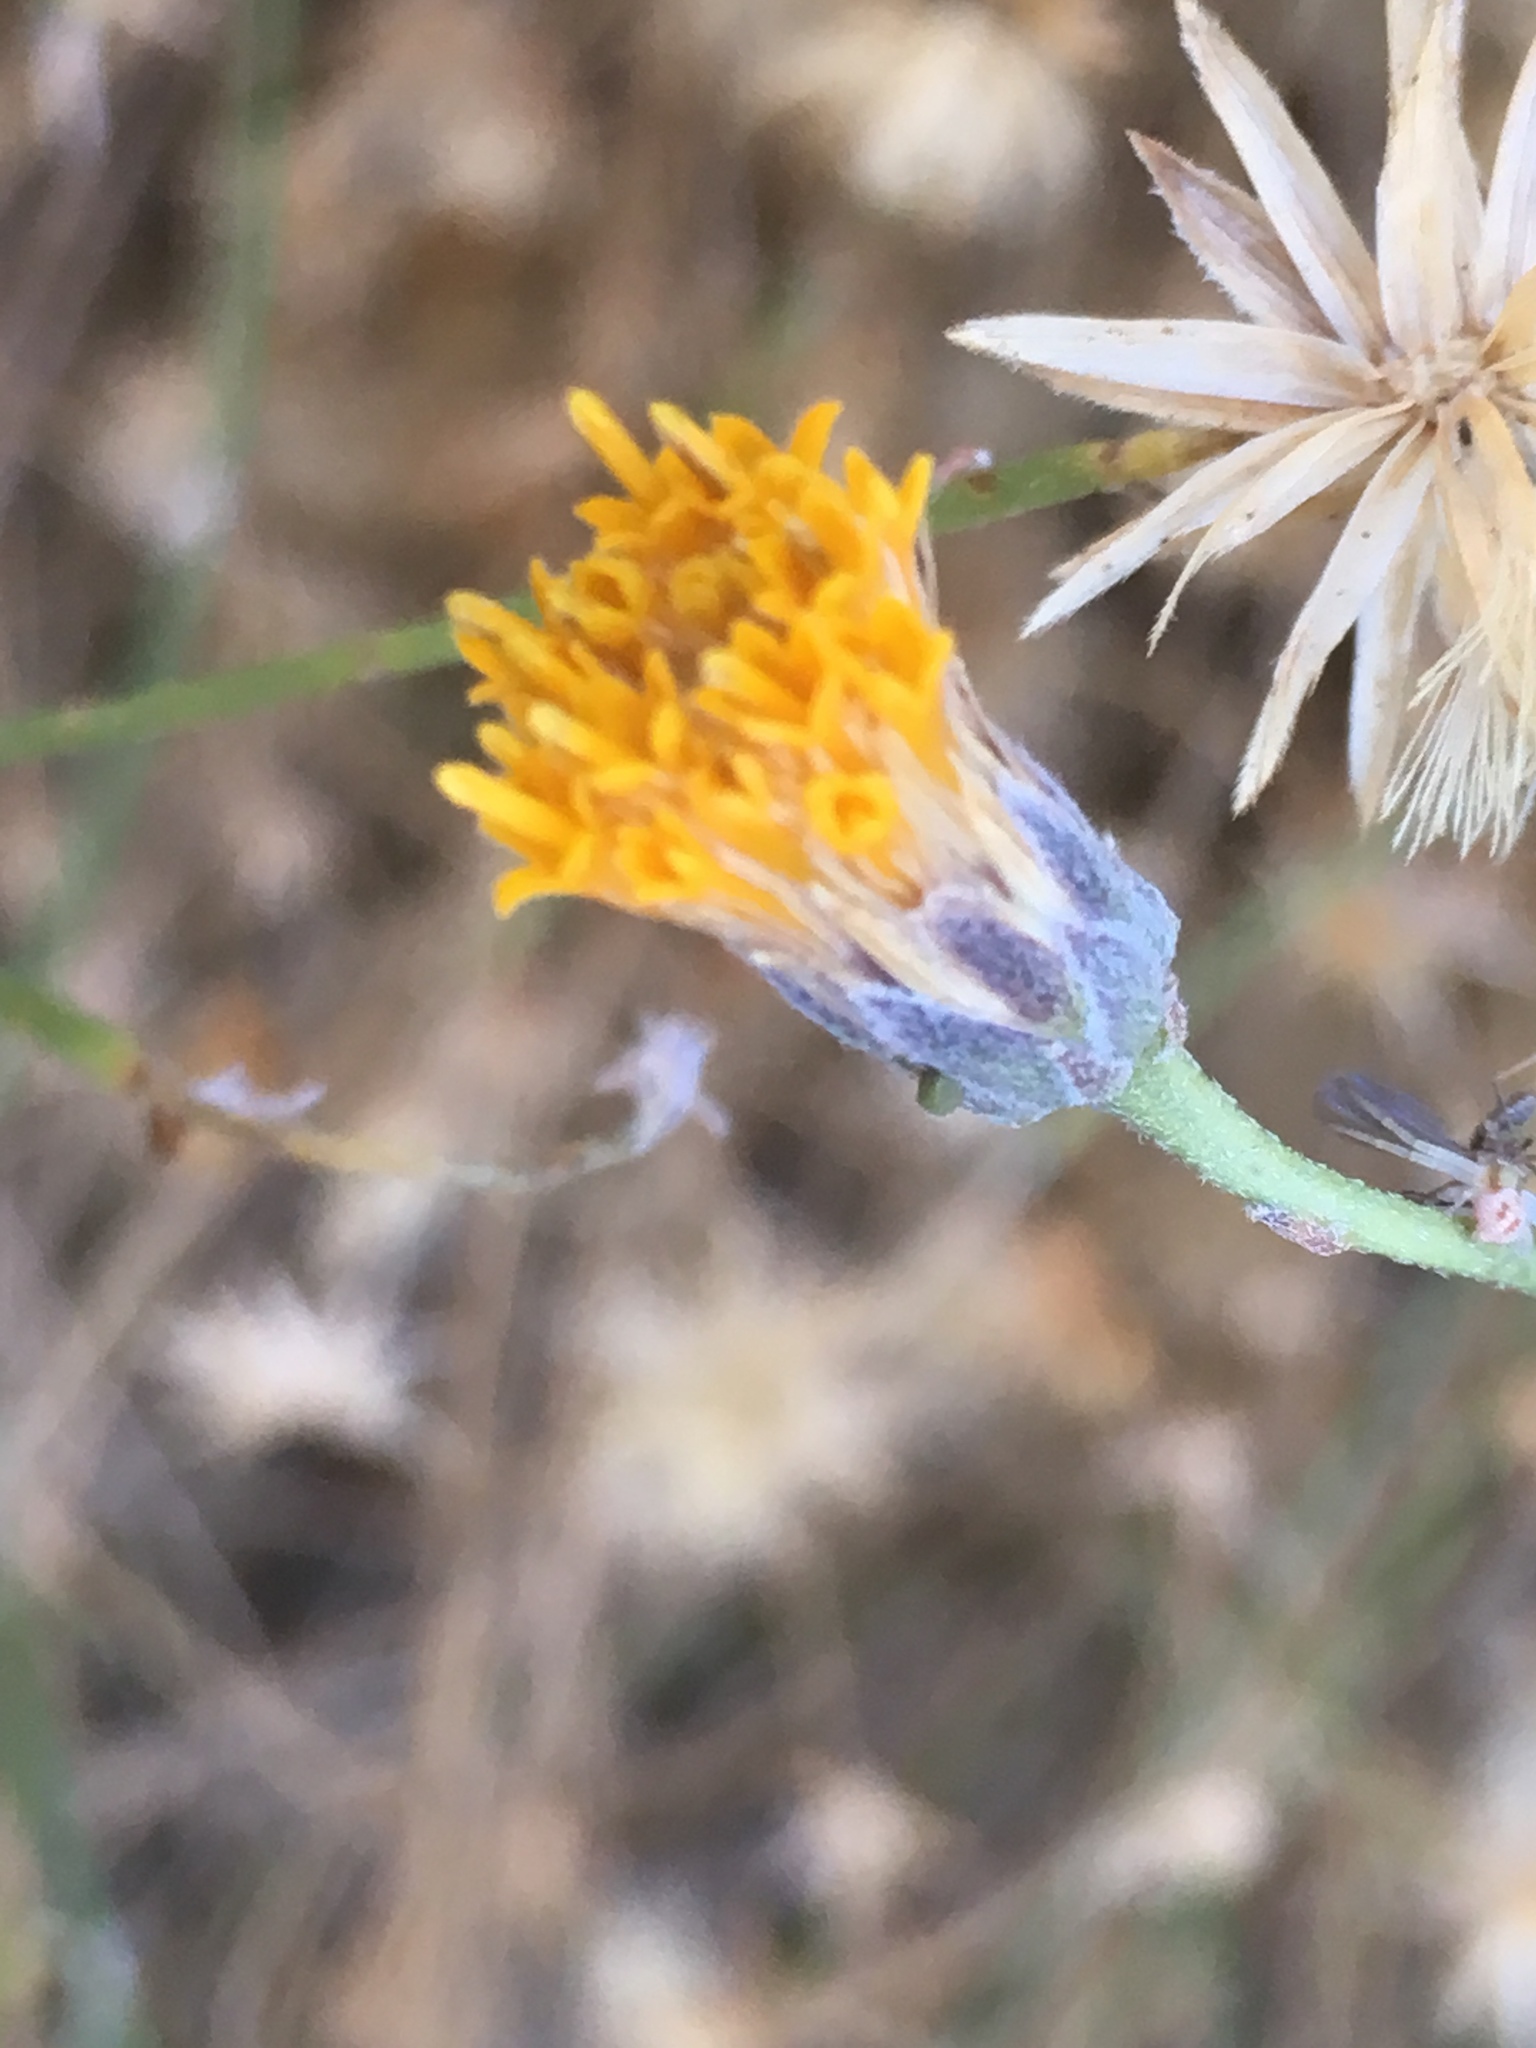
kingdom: Plantae
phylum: Tracheophyta
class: Magnoliopsida
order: Asterales
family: Asteraceae
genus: Bebbia
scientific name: Bebbia juncea
